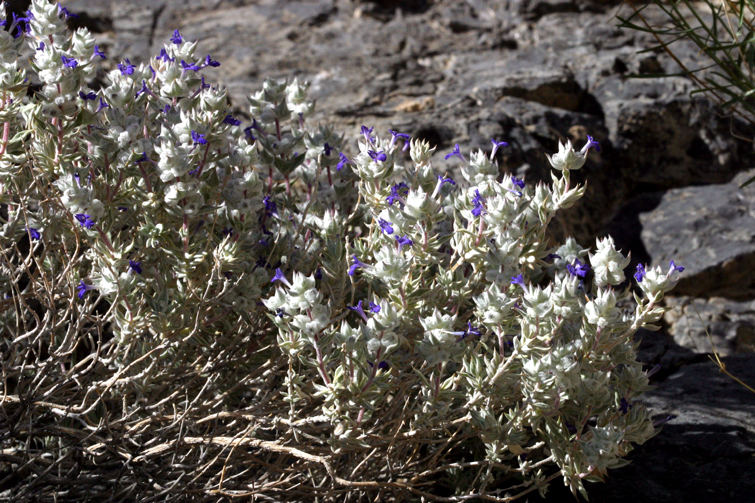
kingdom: Plantae
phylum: Tracheophyta
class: Magnoliopsida
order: Lamiales
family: Lamiaceae
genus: Salvia
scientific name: Salvia funerea
